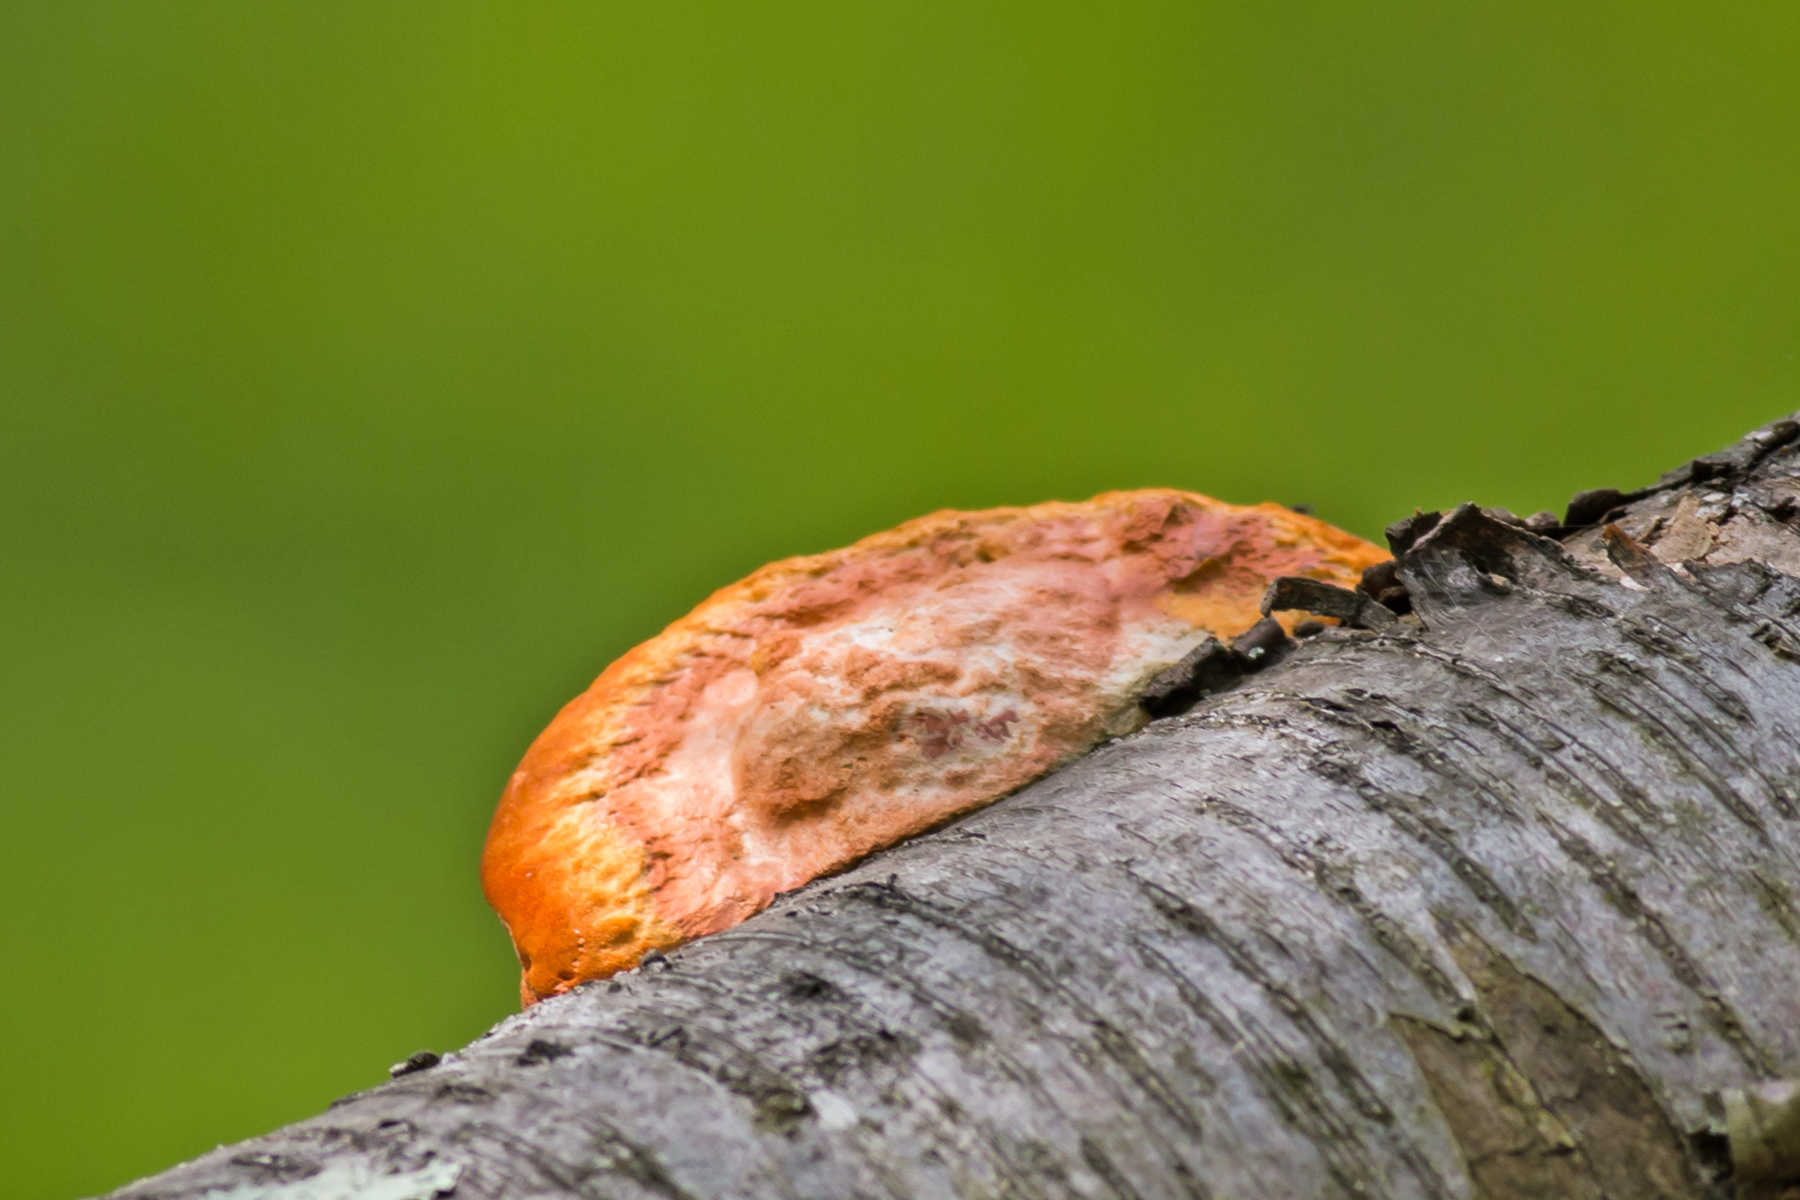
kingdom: Fungi
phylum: Basidiomycota
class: Agaricomycetes
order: Polyporales
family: Polyporaceae
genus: Trametes
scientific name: Trametes cinnabarina
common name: Northern cinnabar polypore
